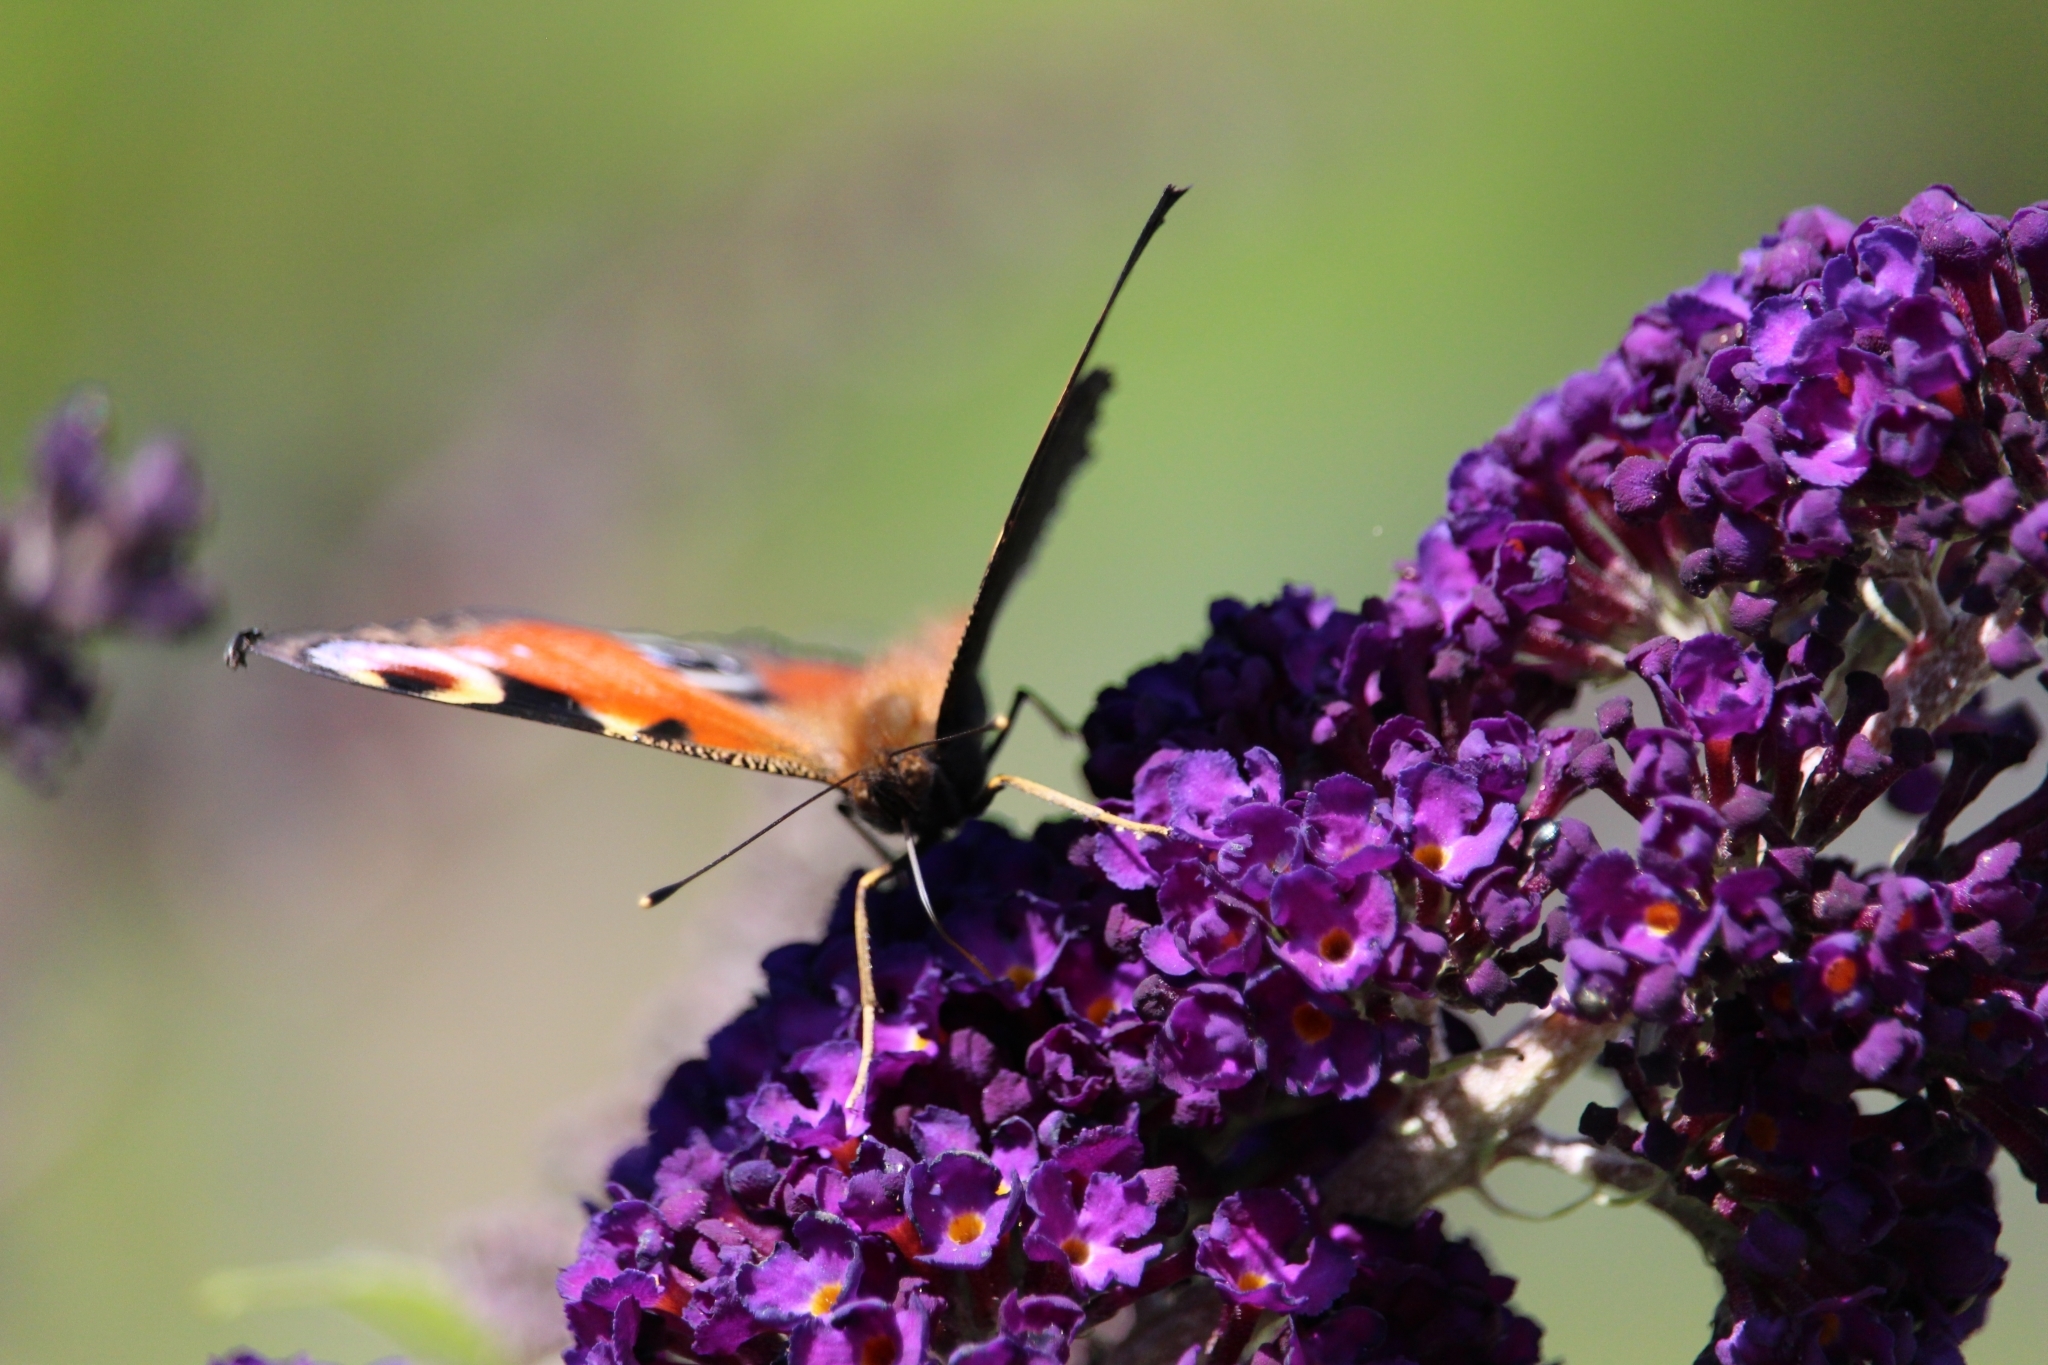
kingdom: Animalia
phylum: Arthropoda
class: Insecta
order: Lepidoptera
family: Nymphalidae
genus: Aglais
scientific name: Aglais io
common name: Peacock
